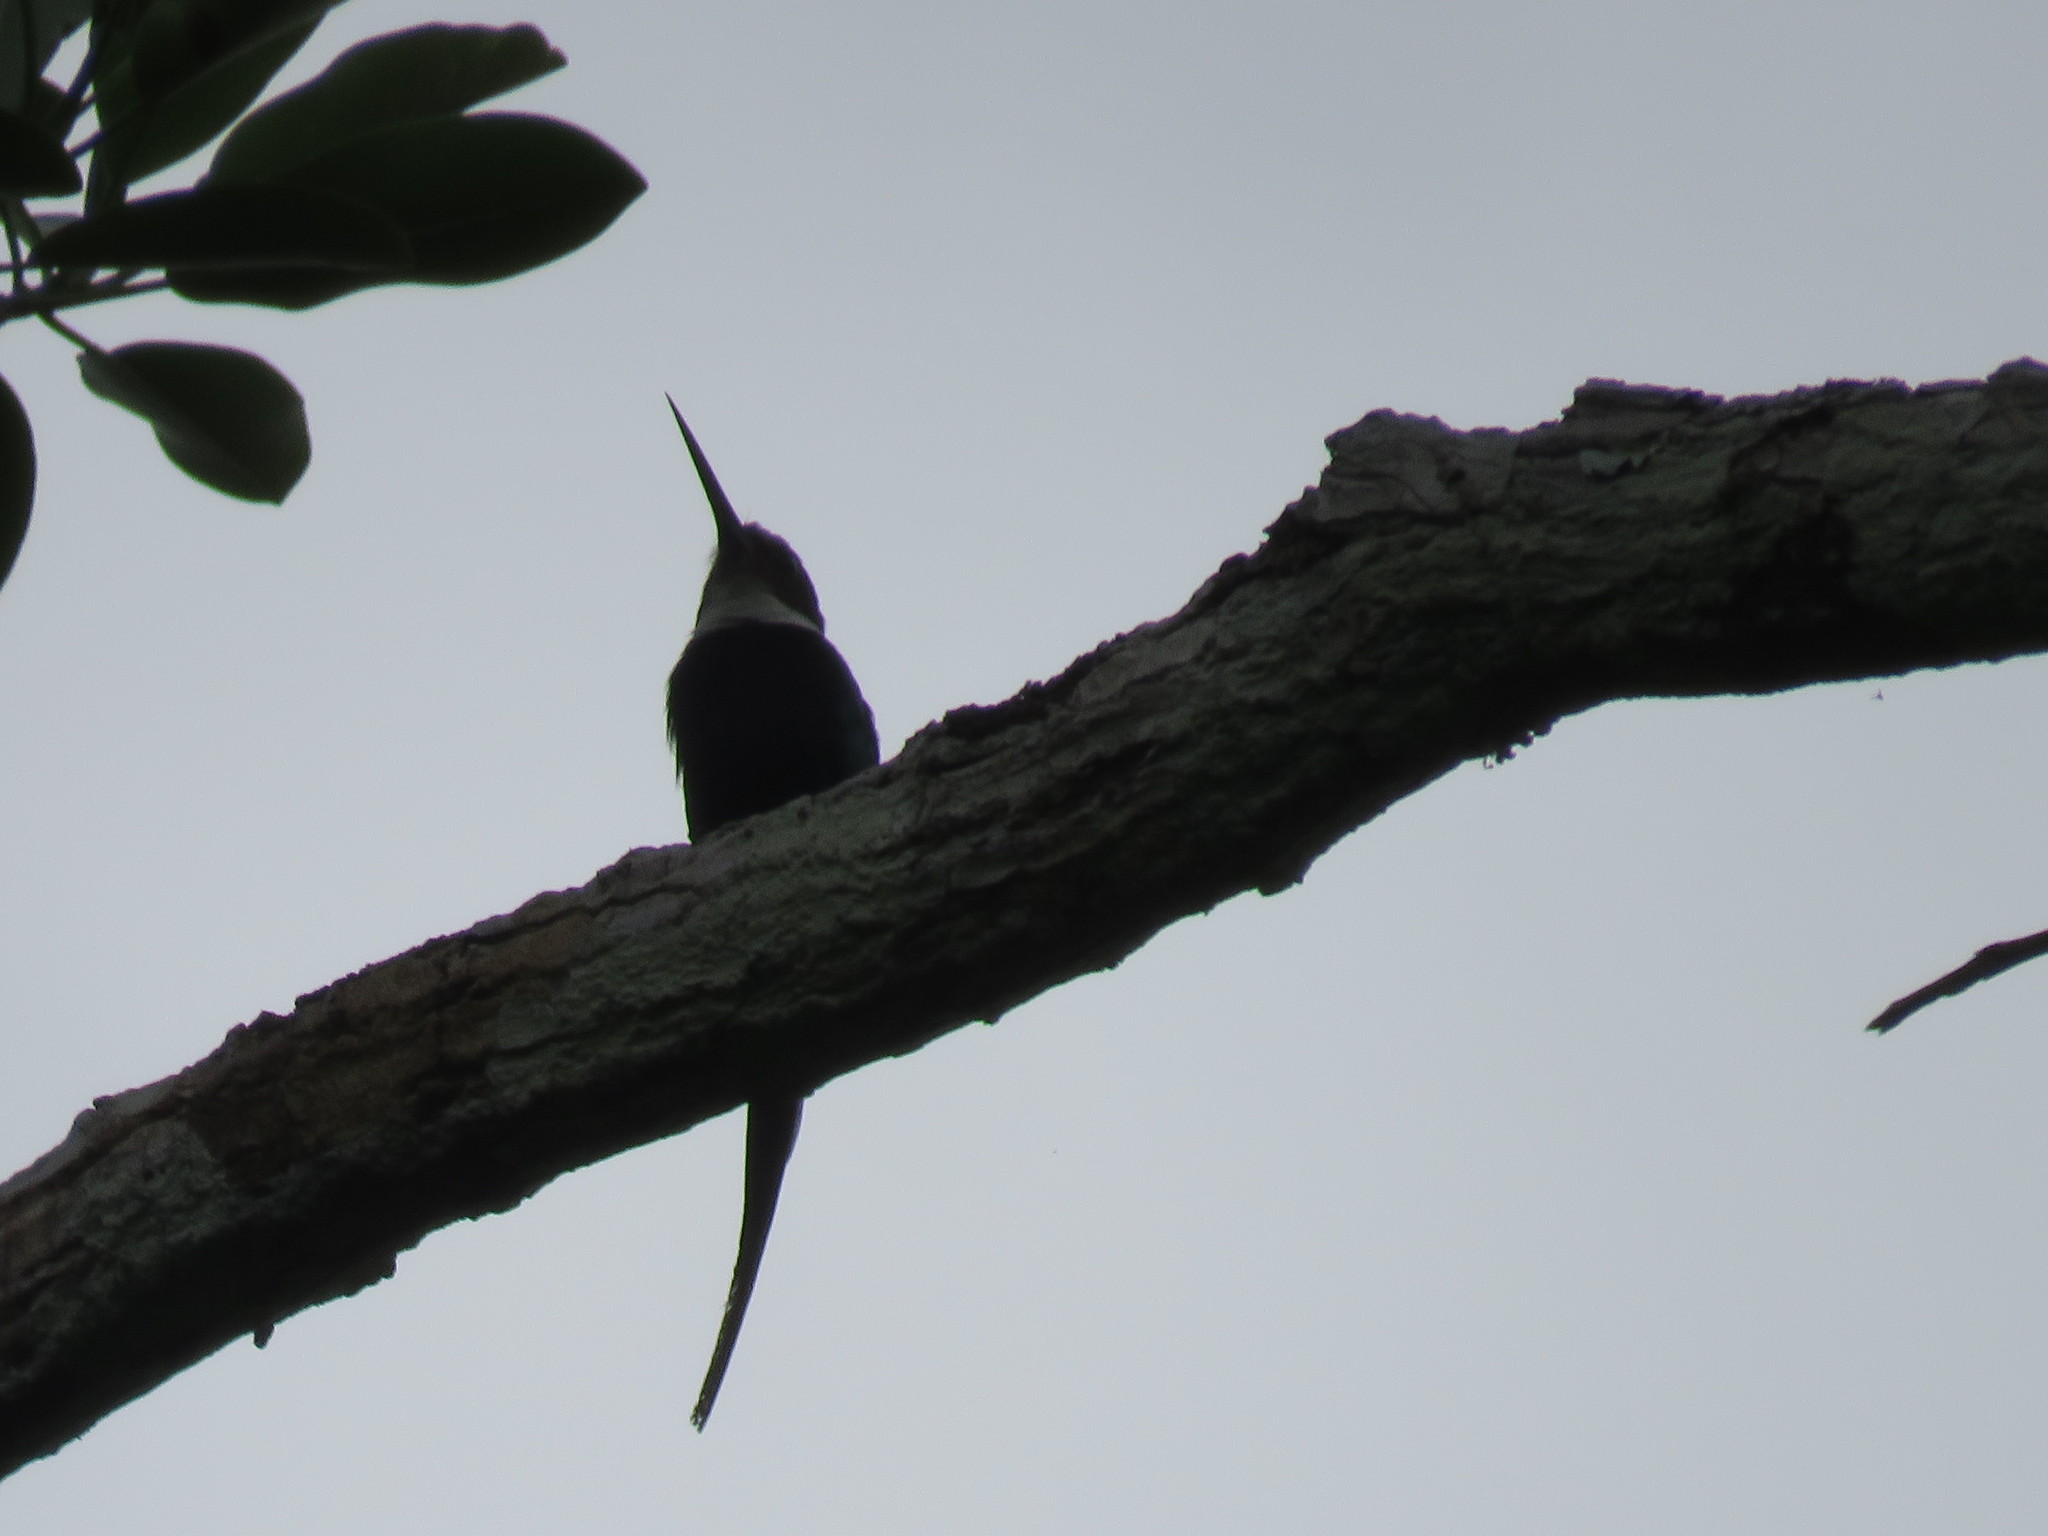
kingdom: Animalia
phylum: Chordata
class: Aves
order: Piciformes
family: Galbulidae
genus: Galbula
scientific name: Galbula dea
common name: Paradise jacamar
